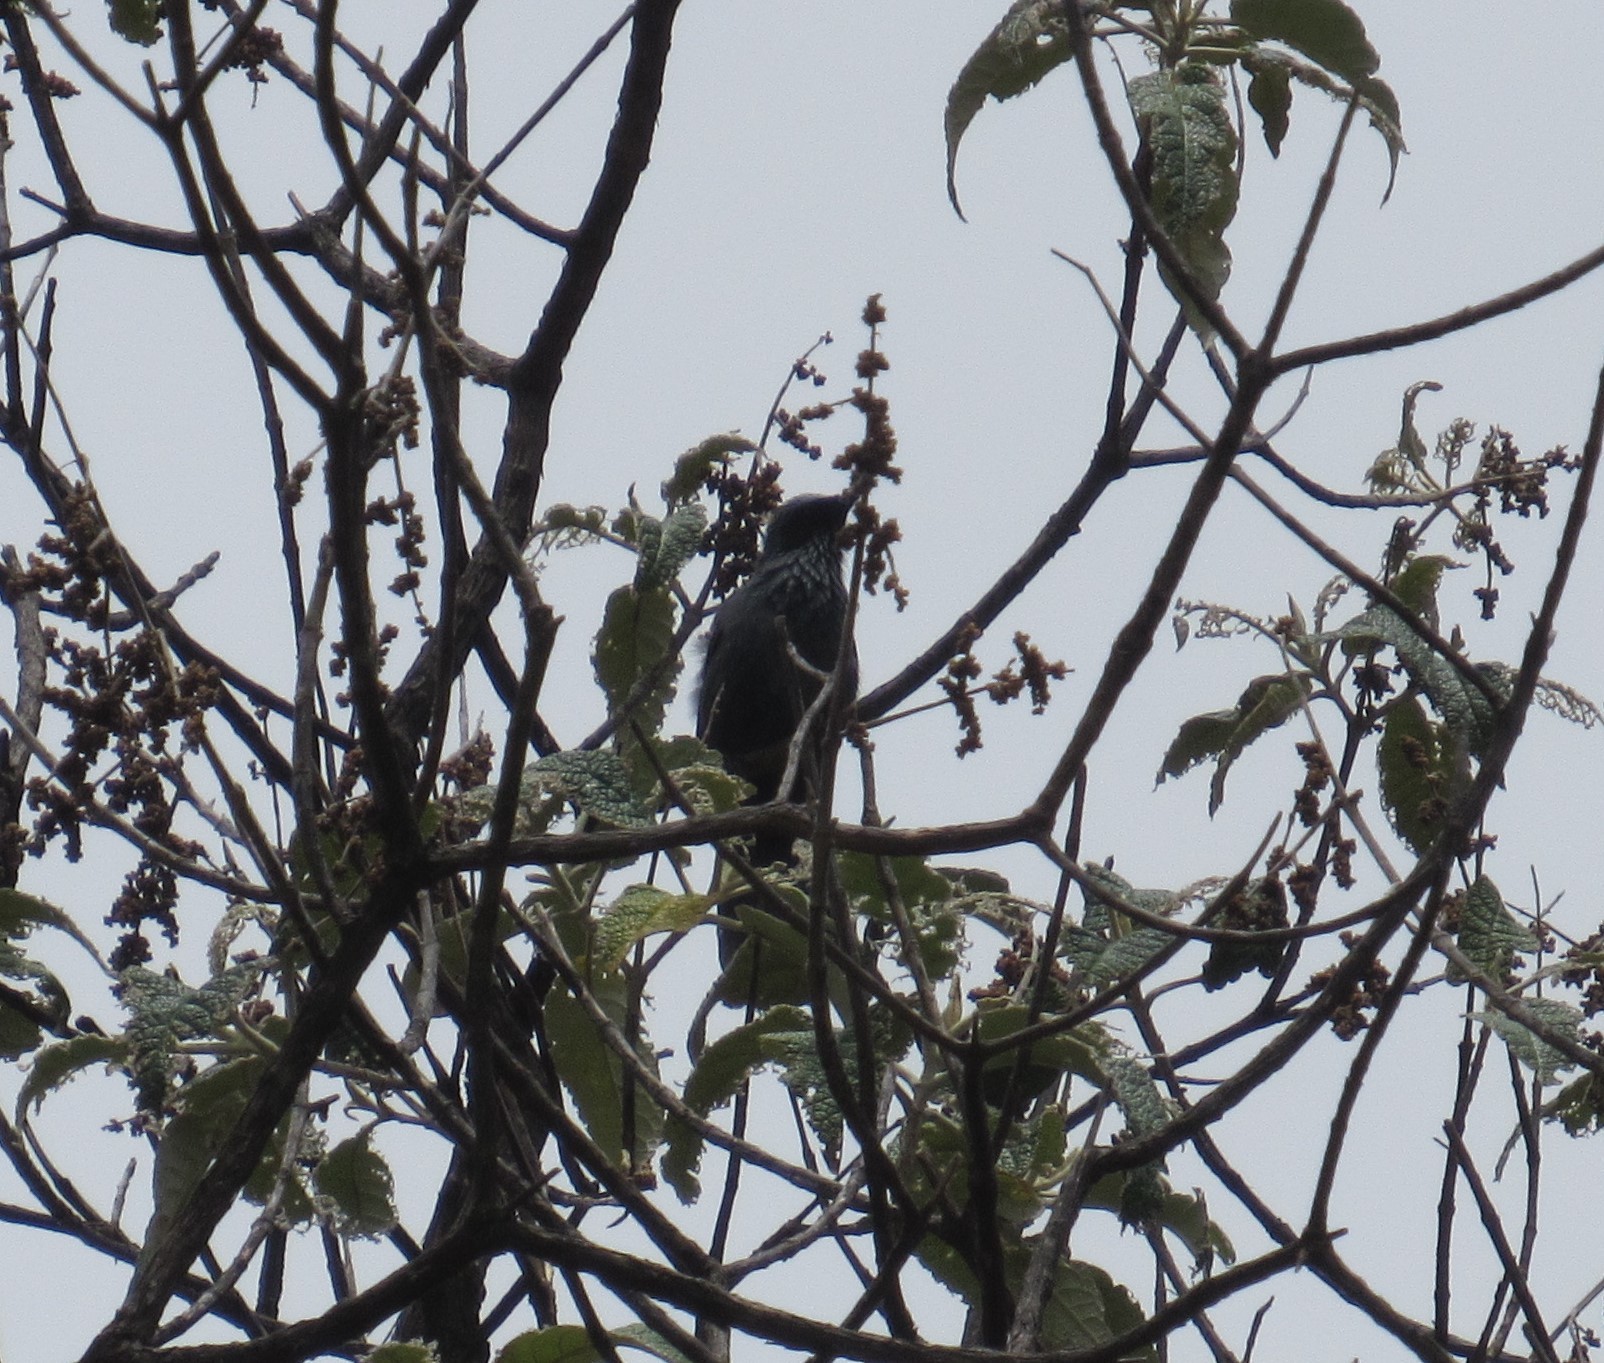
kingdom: Animalia
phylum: Chordata
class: Aves
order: Passeriformes
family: Mimidae
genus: Melanotis
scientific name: Melanotis caerulescens
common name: Blue mockingbird
